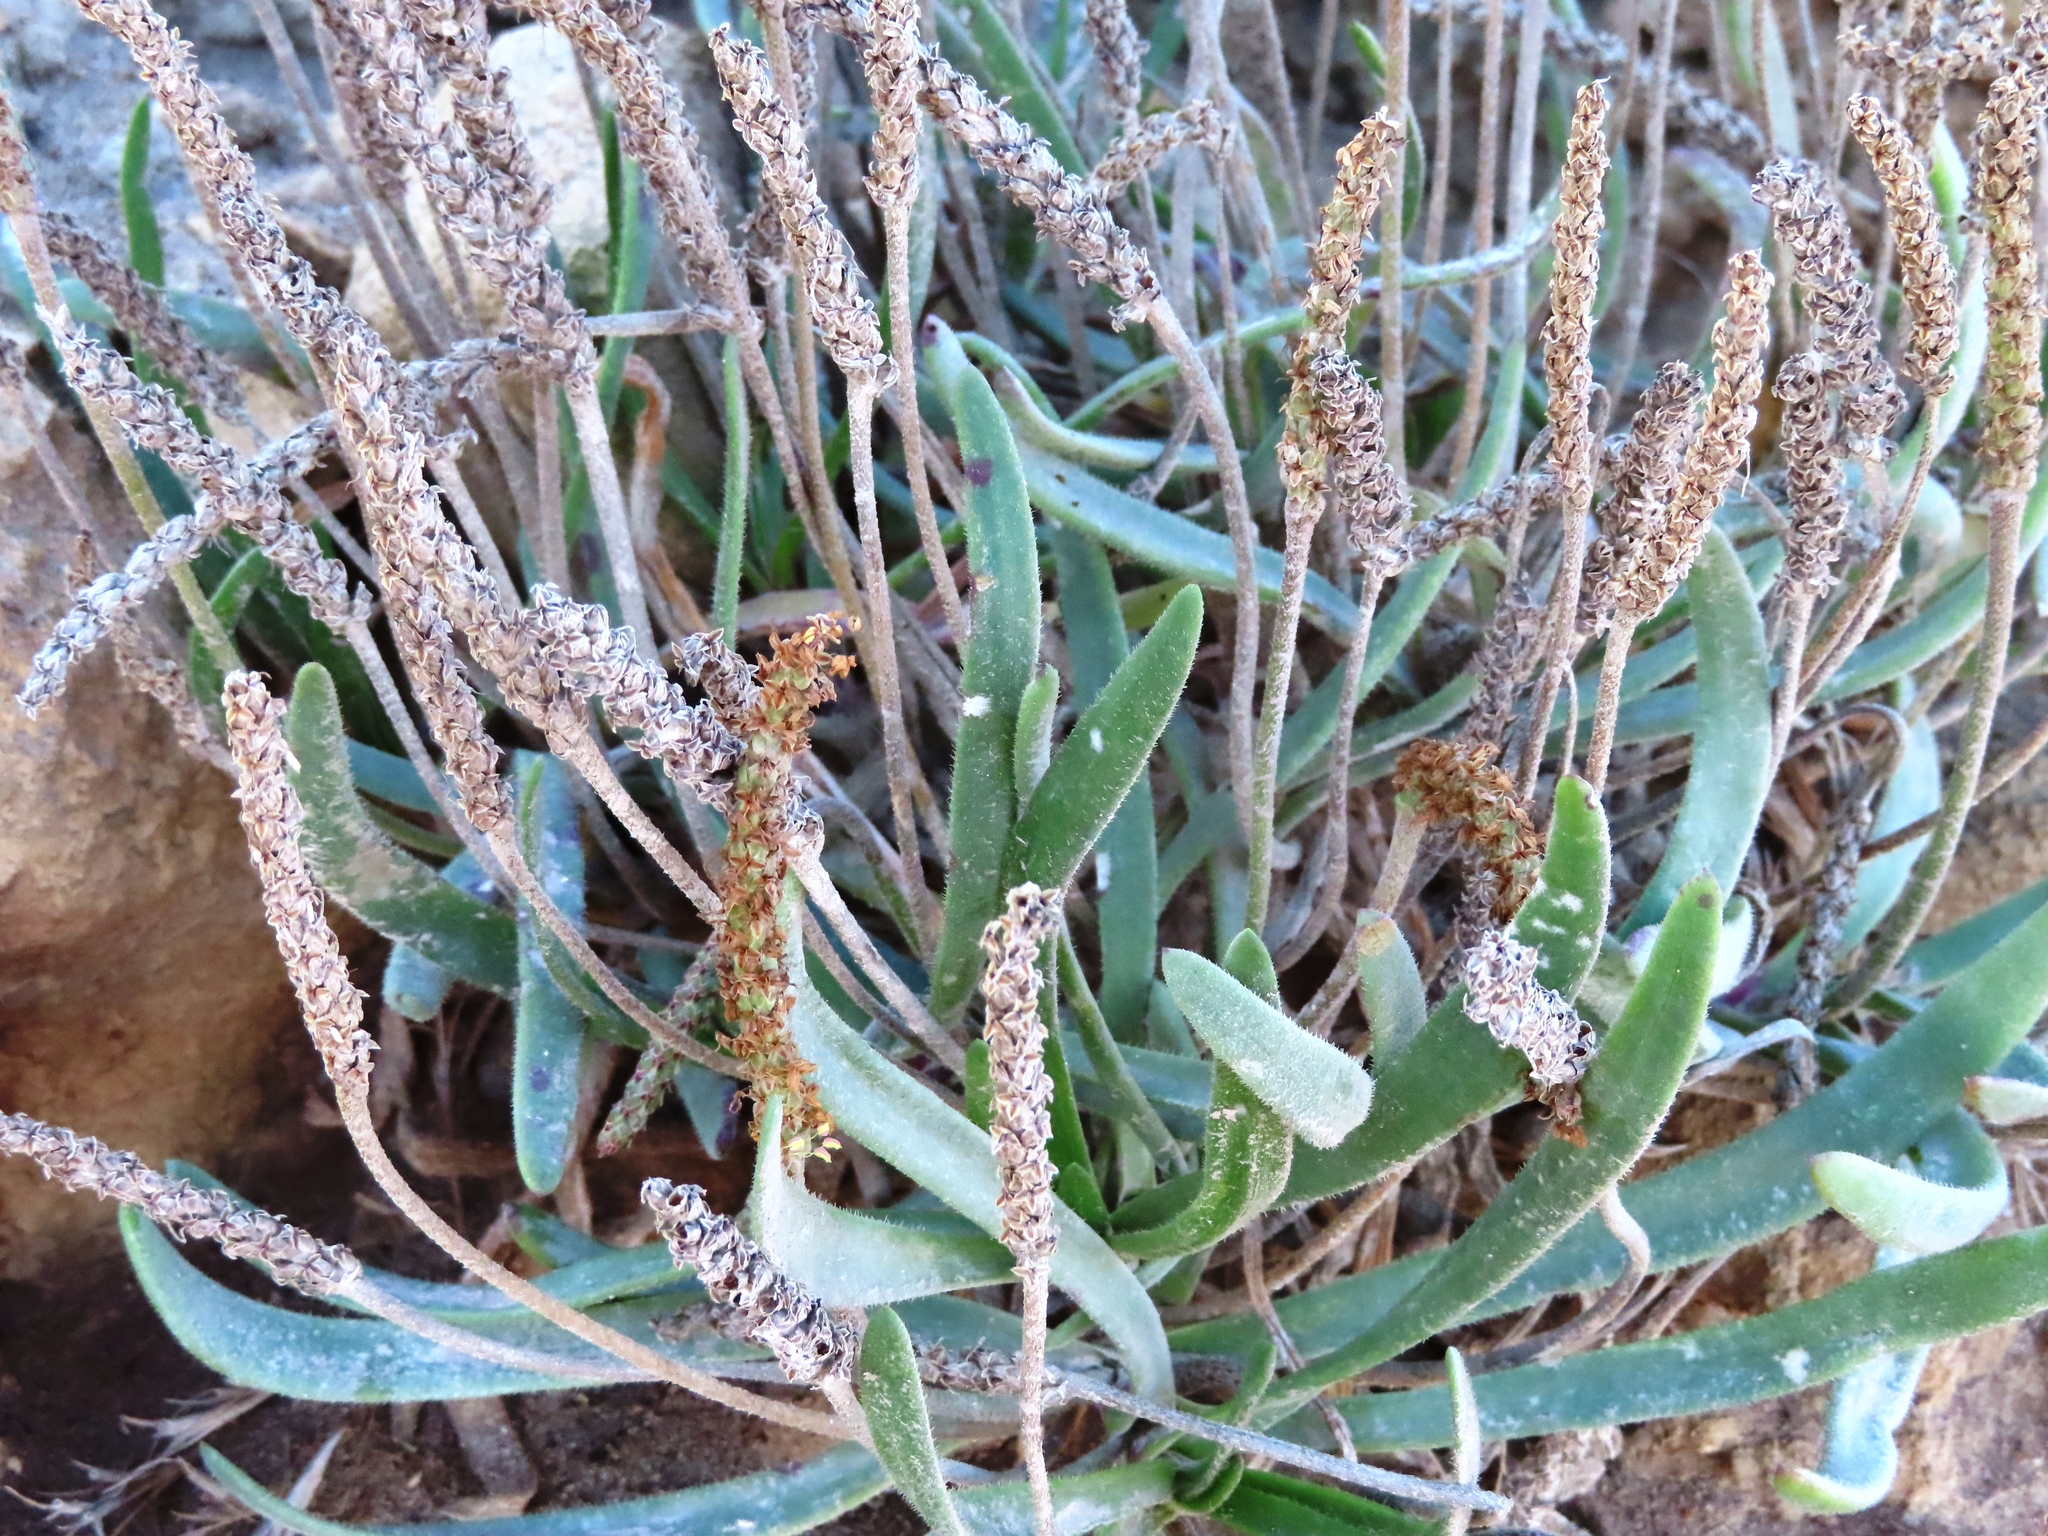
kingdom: Plantae
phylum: Tracheophyta
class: Magnoliopsida
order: Lamiales
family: Plantaginaceae
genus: Plantago
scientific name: Plantago carnosa
